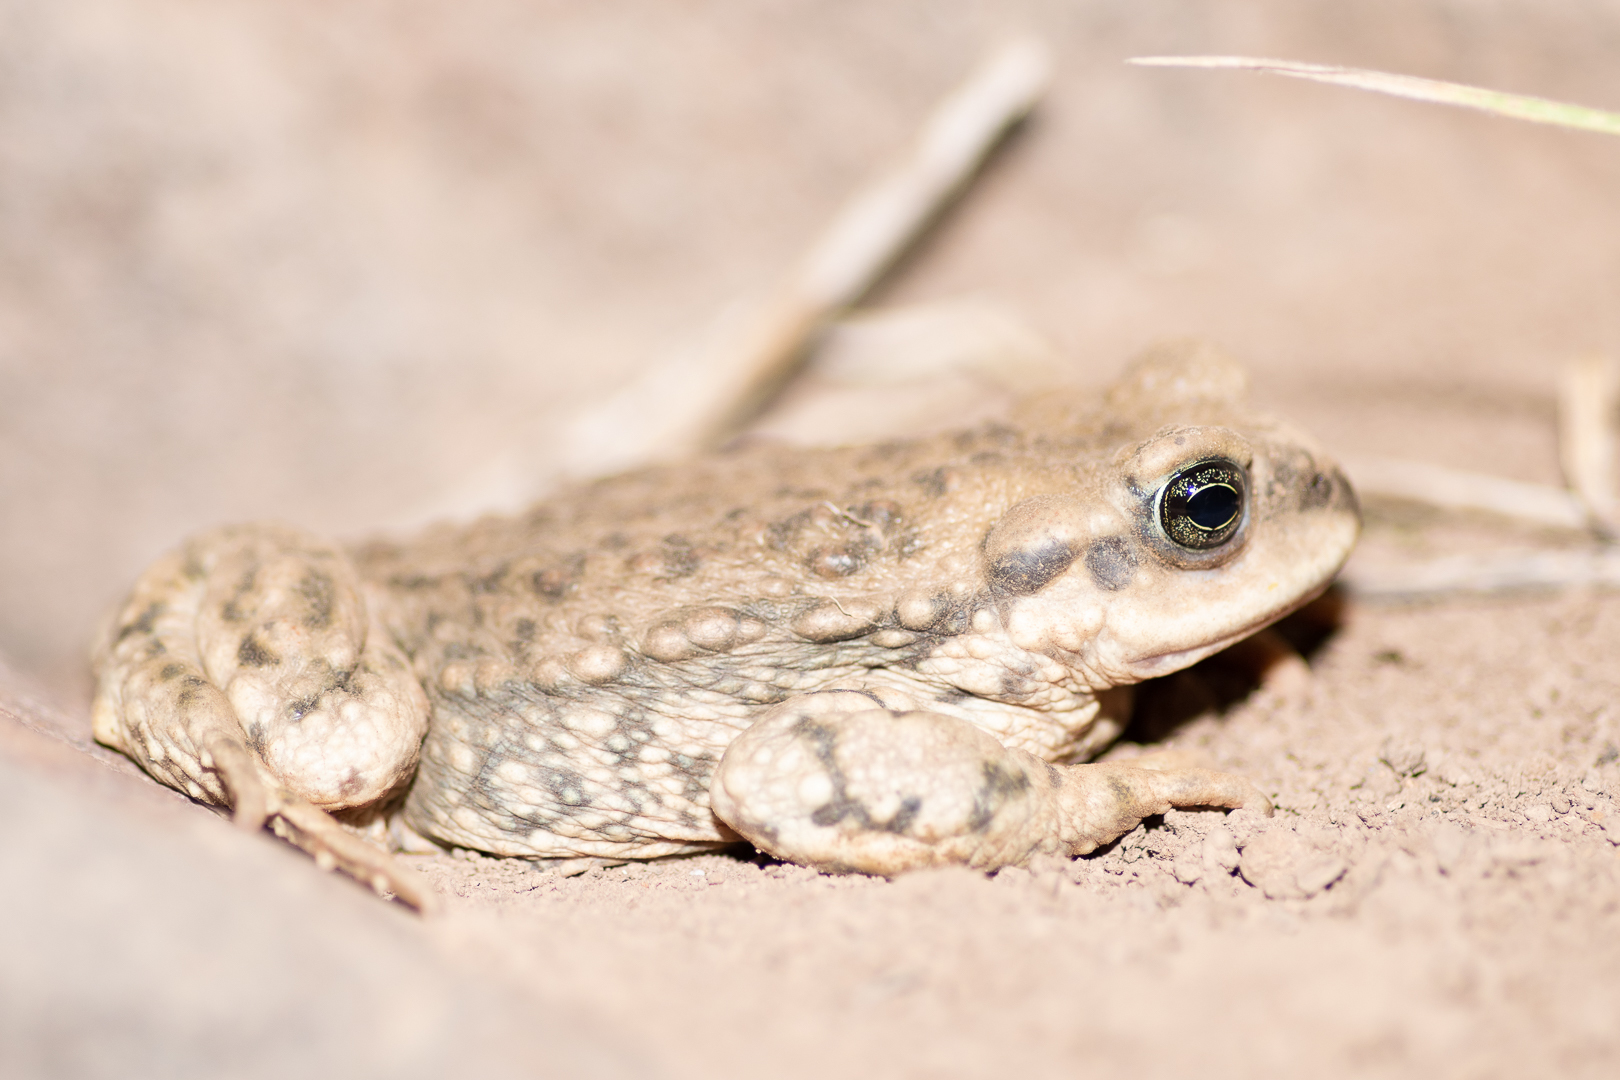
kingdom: Animalia
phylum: Chordata
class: Amphibia
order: Anura
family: Bufonidae
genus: Rhinella
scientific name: Rhinella spinulosa
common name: Warty toad
